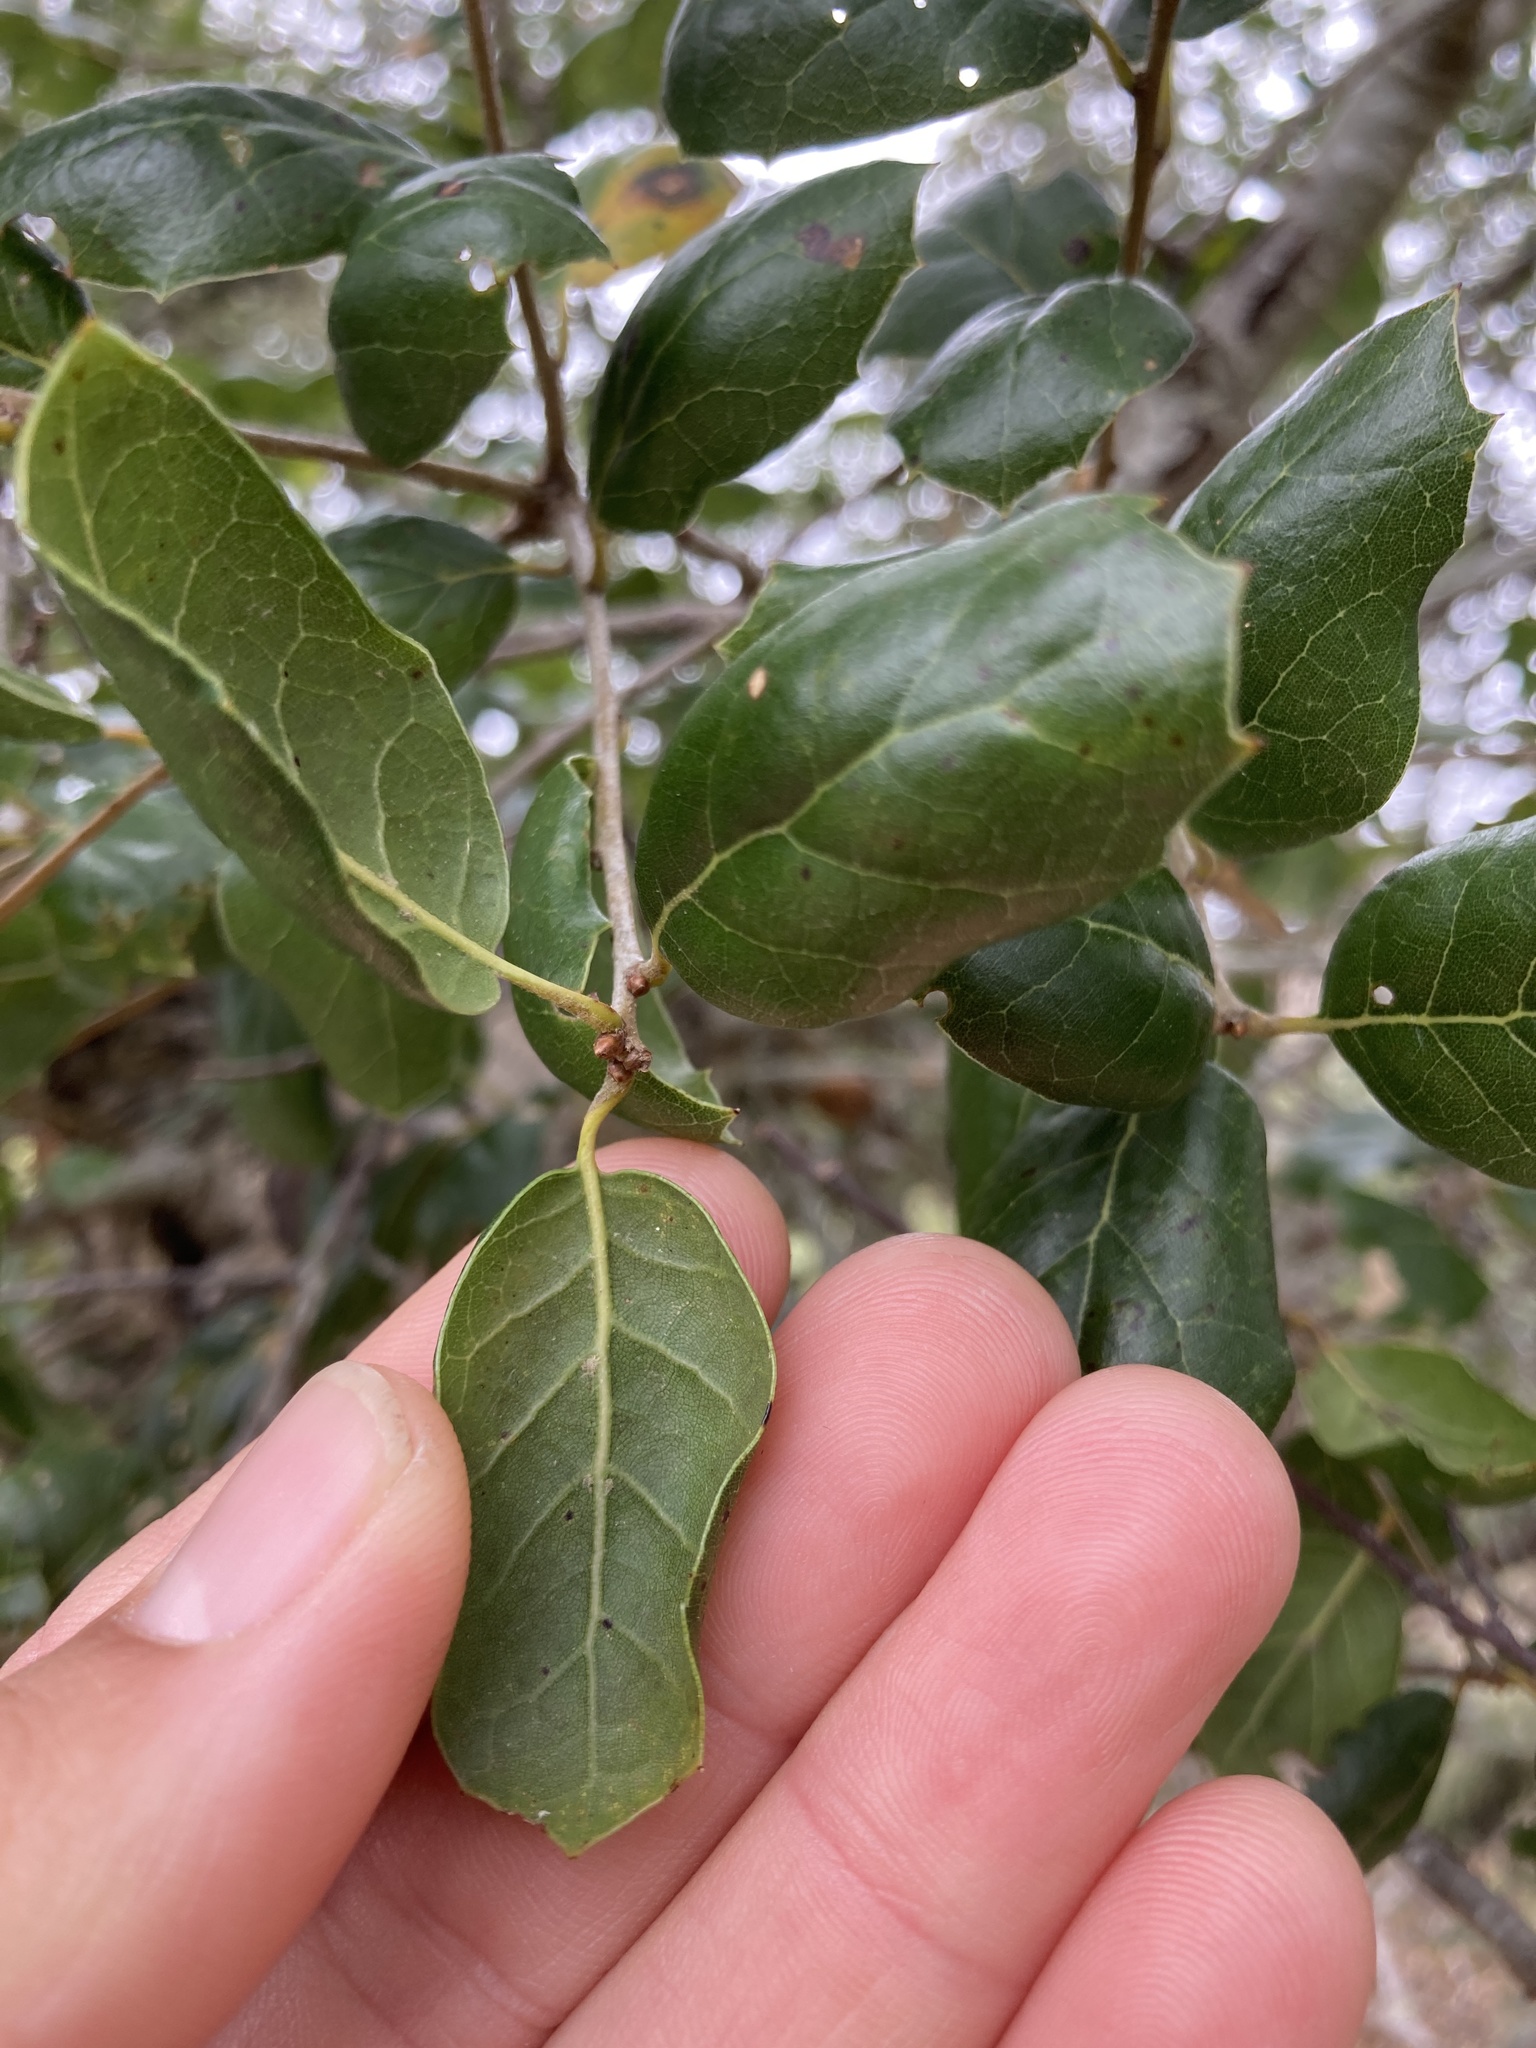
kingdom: Plantae
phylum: Tracheophyta
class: Magnoliopsida
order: Fagales
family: Fagaceae
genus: Quercus
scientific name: Quercus agrifolia
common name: California live oak
